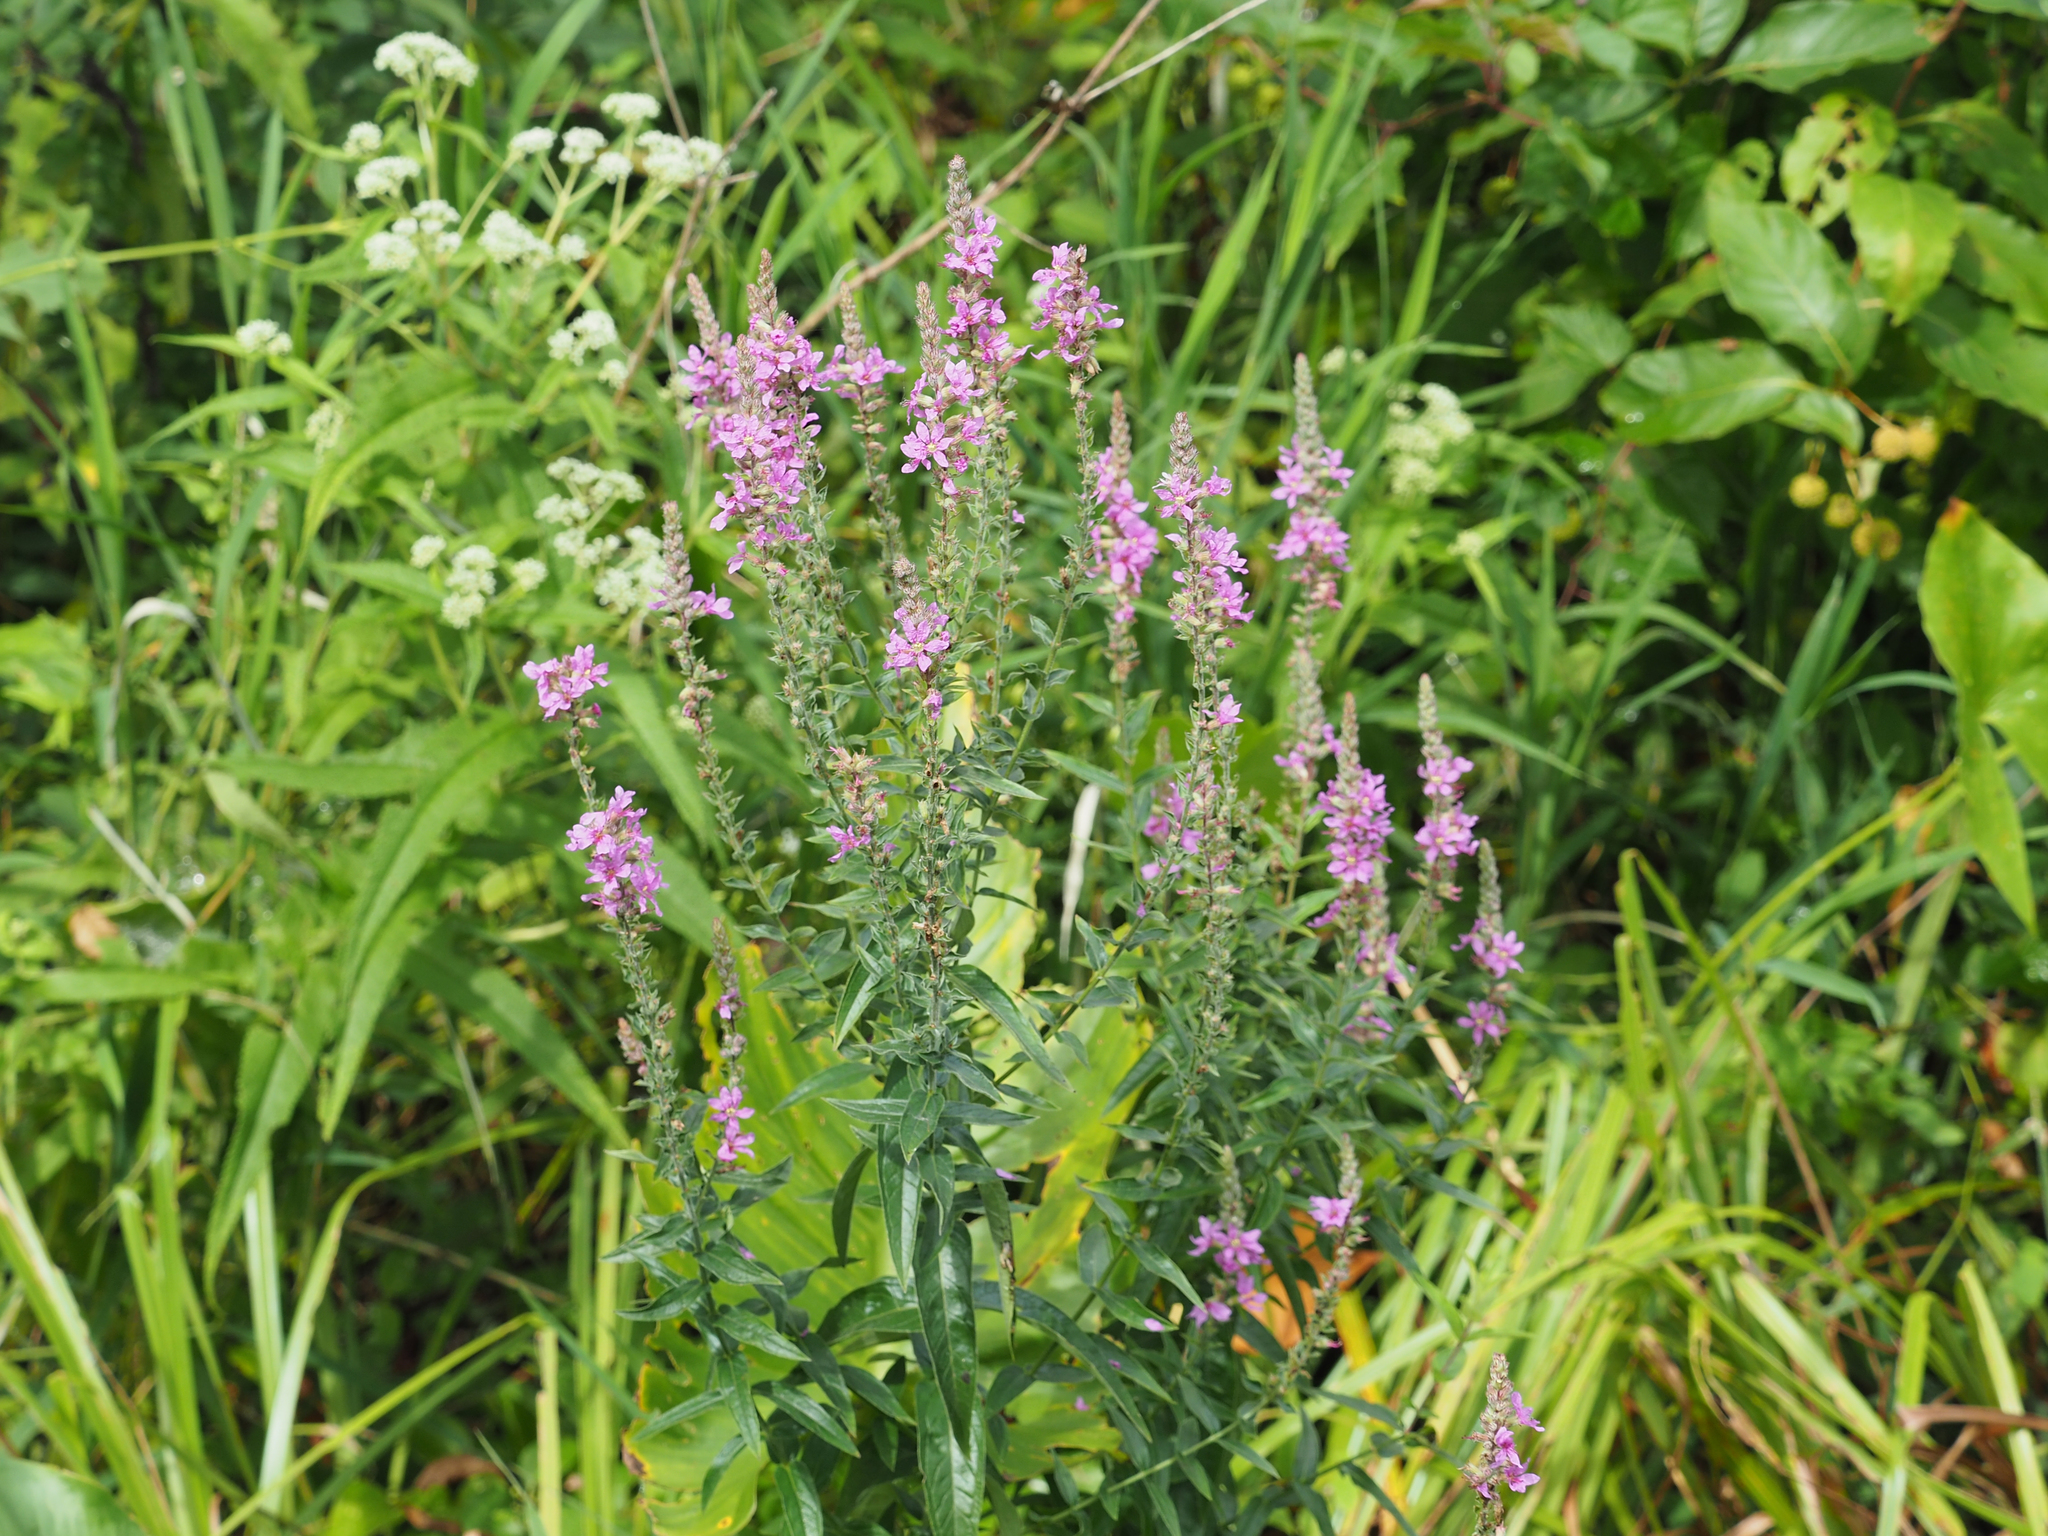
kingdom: Plantae
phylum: Tracheophyta
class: Magnoliopsida
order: Myrtales
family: Lythraceae
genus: Lythrum
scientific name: Lythrum salicaria
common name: Purple loosestrife
